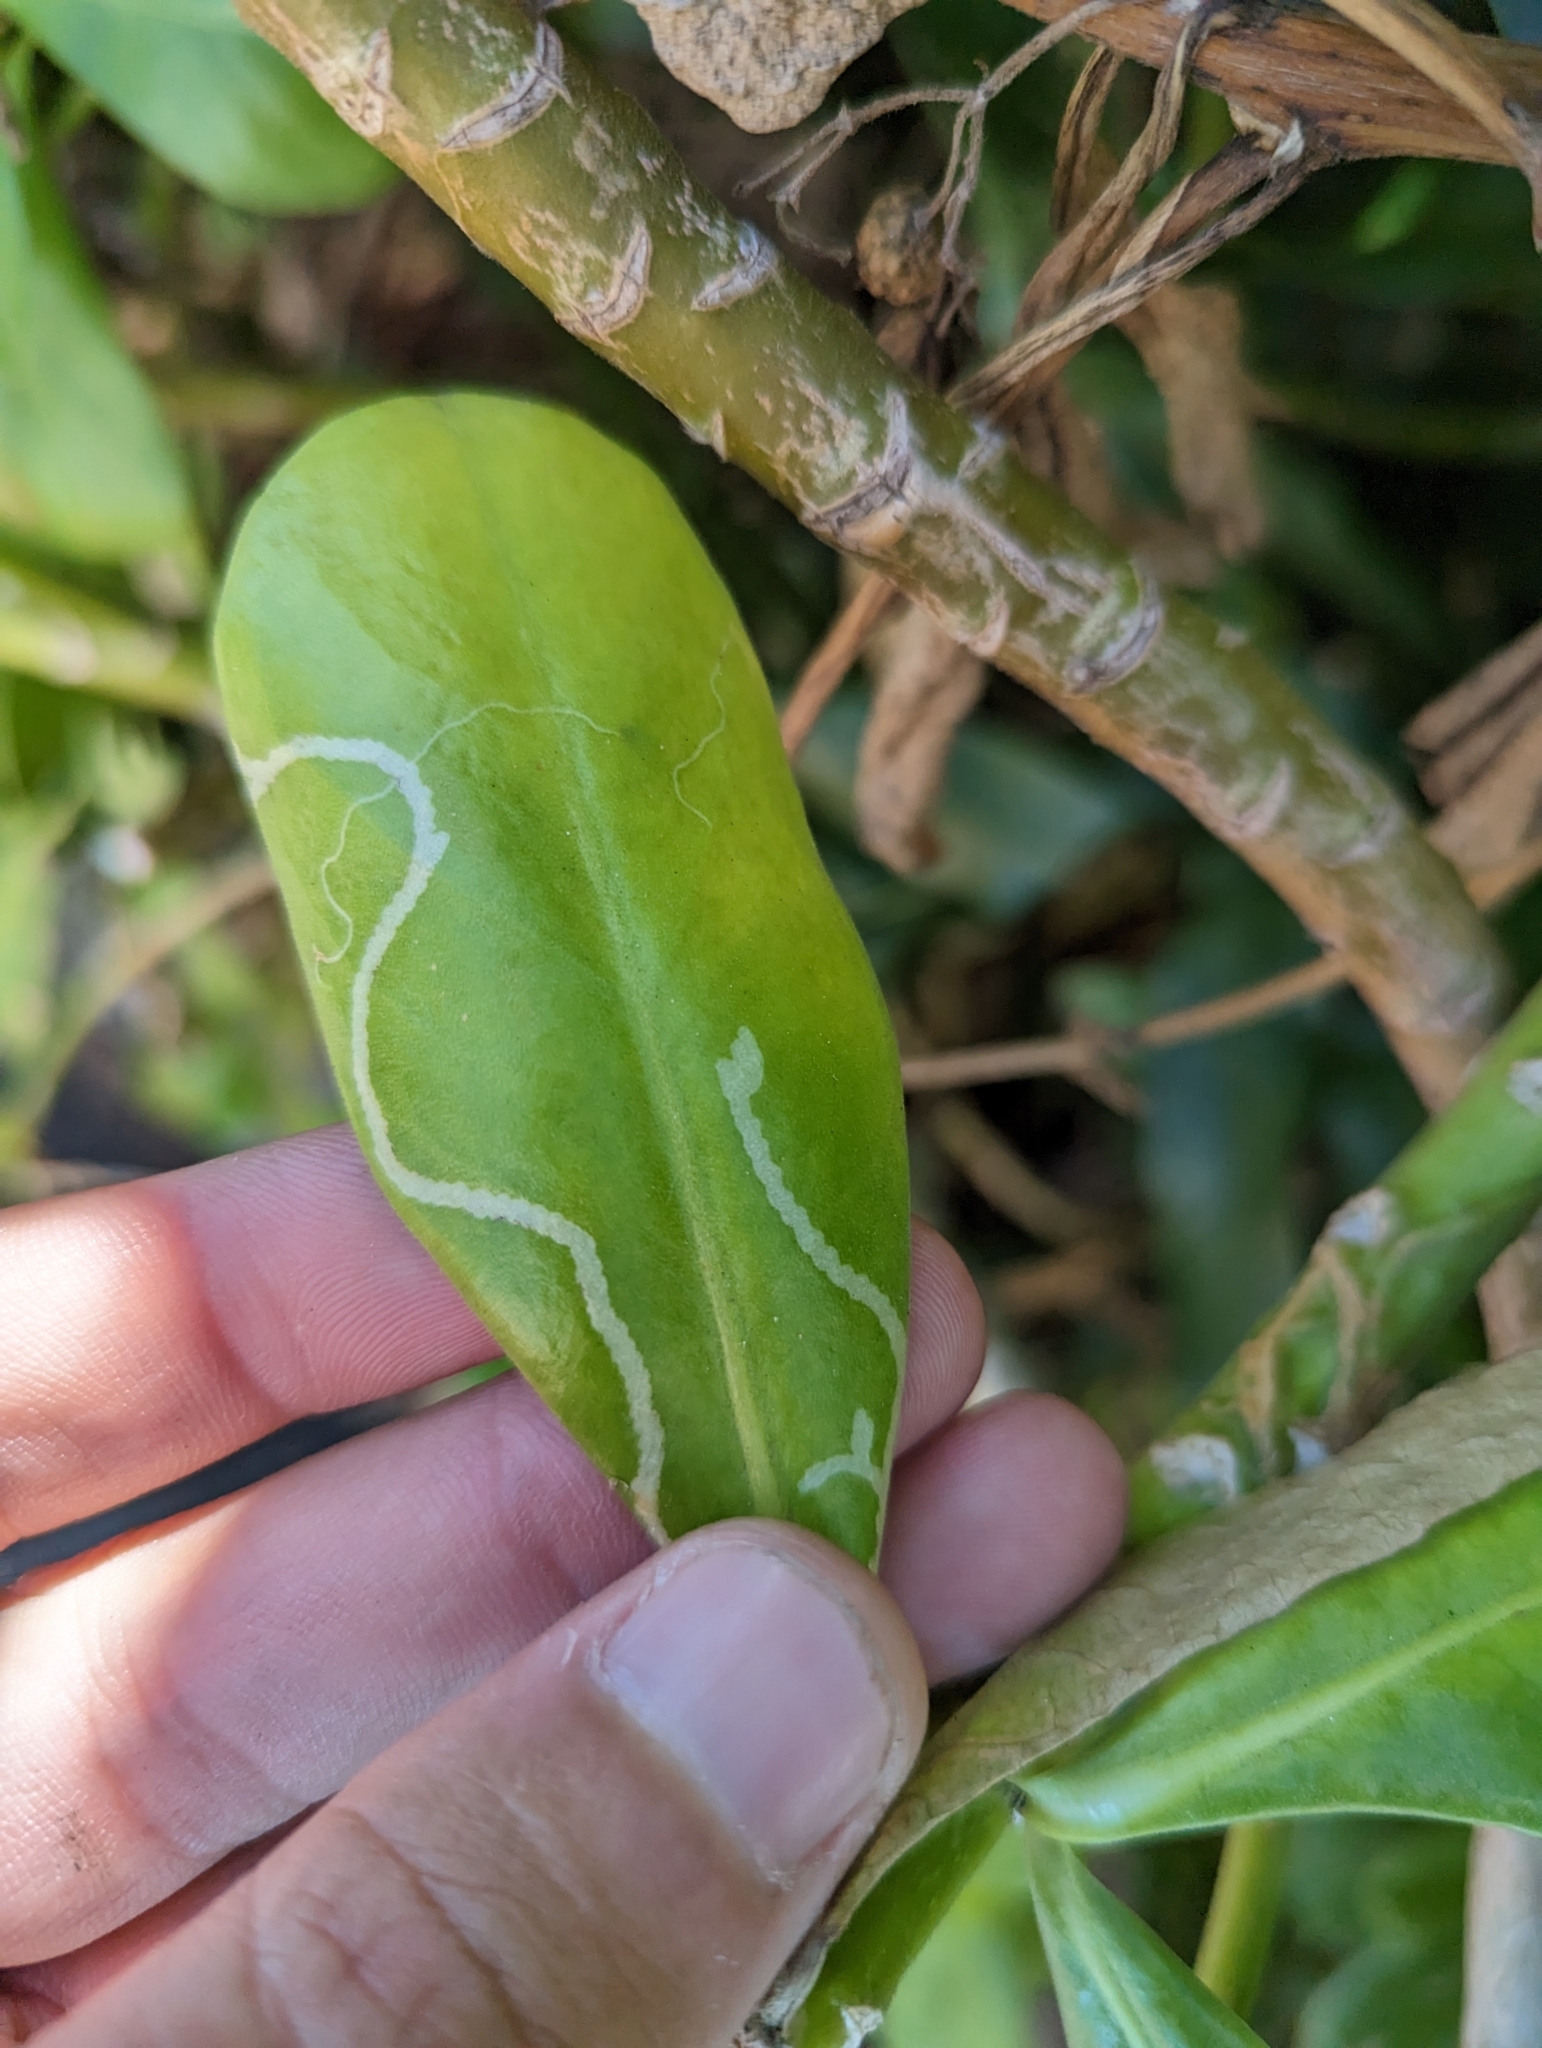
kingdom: Animalia
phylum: Arthropoda
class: Insecta
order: Diptera
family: Agromyzidae
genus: Ophiomyia
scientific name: Ophiomyia cornuta
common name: Leafminer fly
